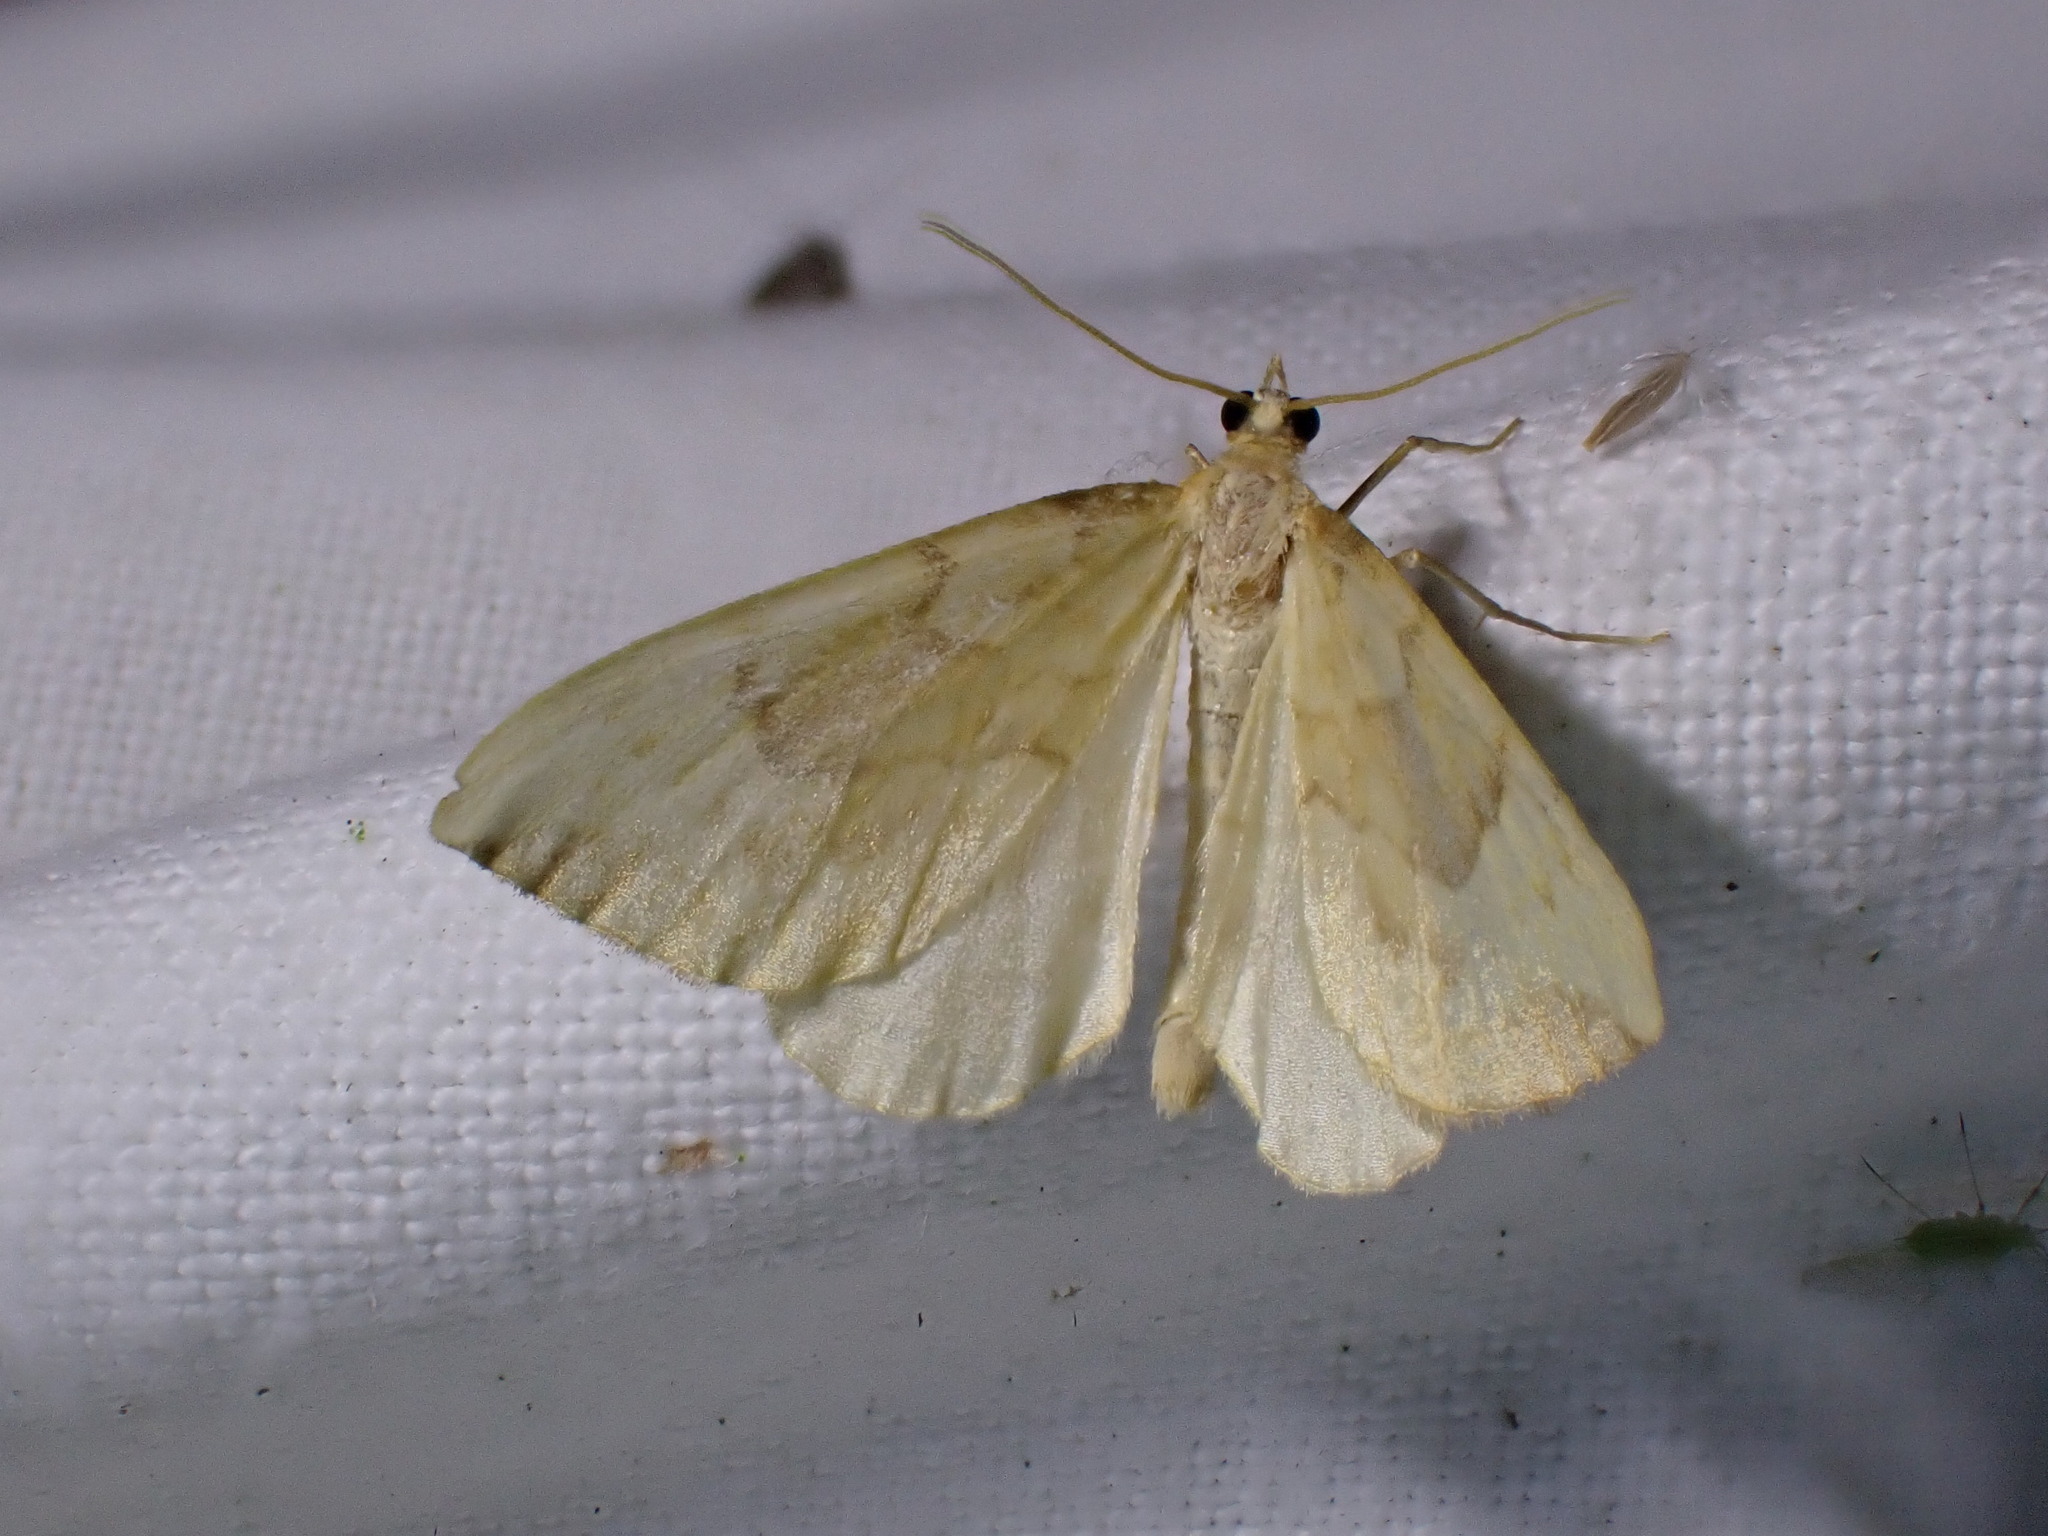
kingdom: Animalia
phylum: Arthropoda
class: Insecta
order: Lepidoptera
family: Geometridae
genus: Eulithis
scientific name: Eulithis pyraliata
